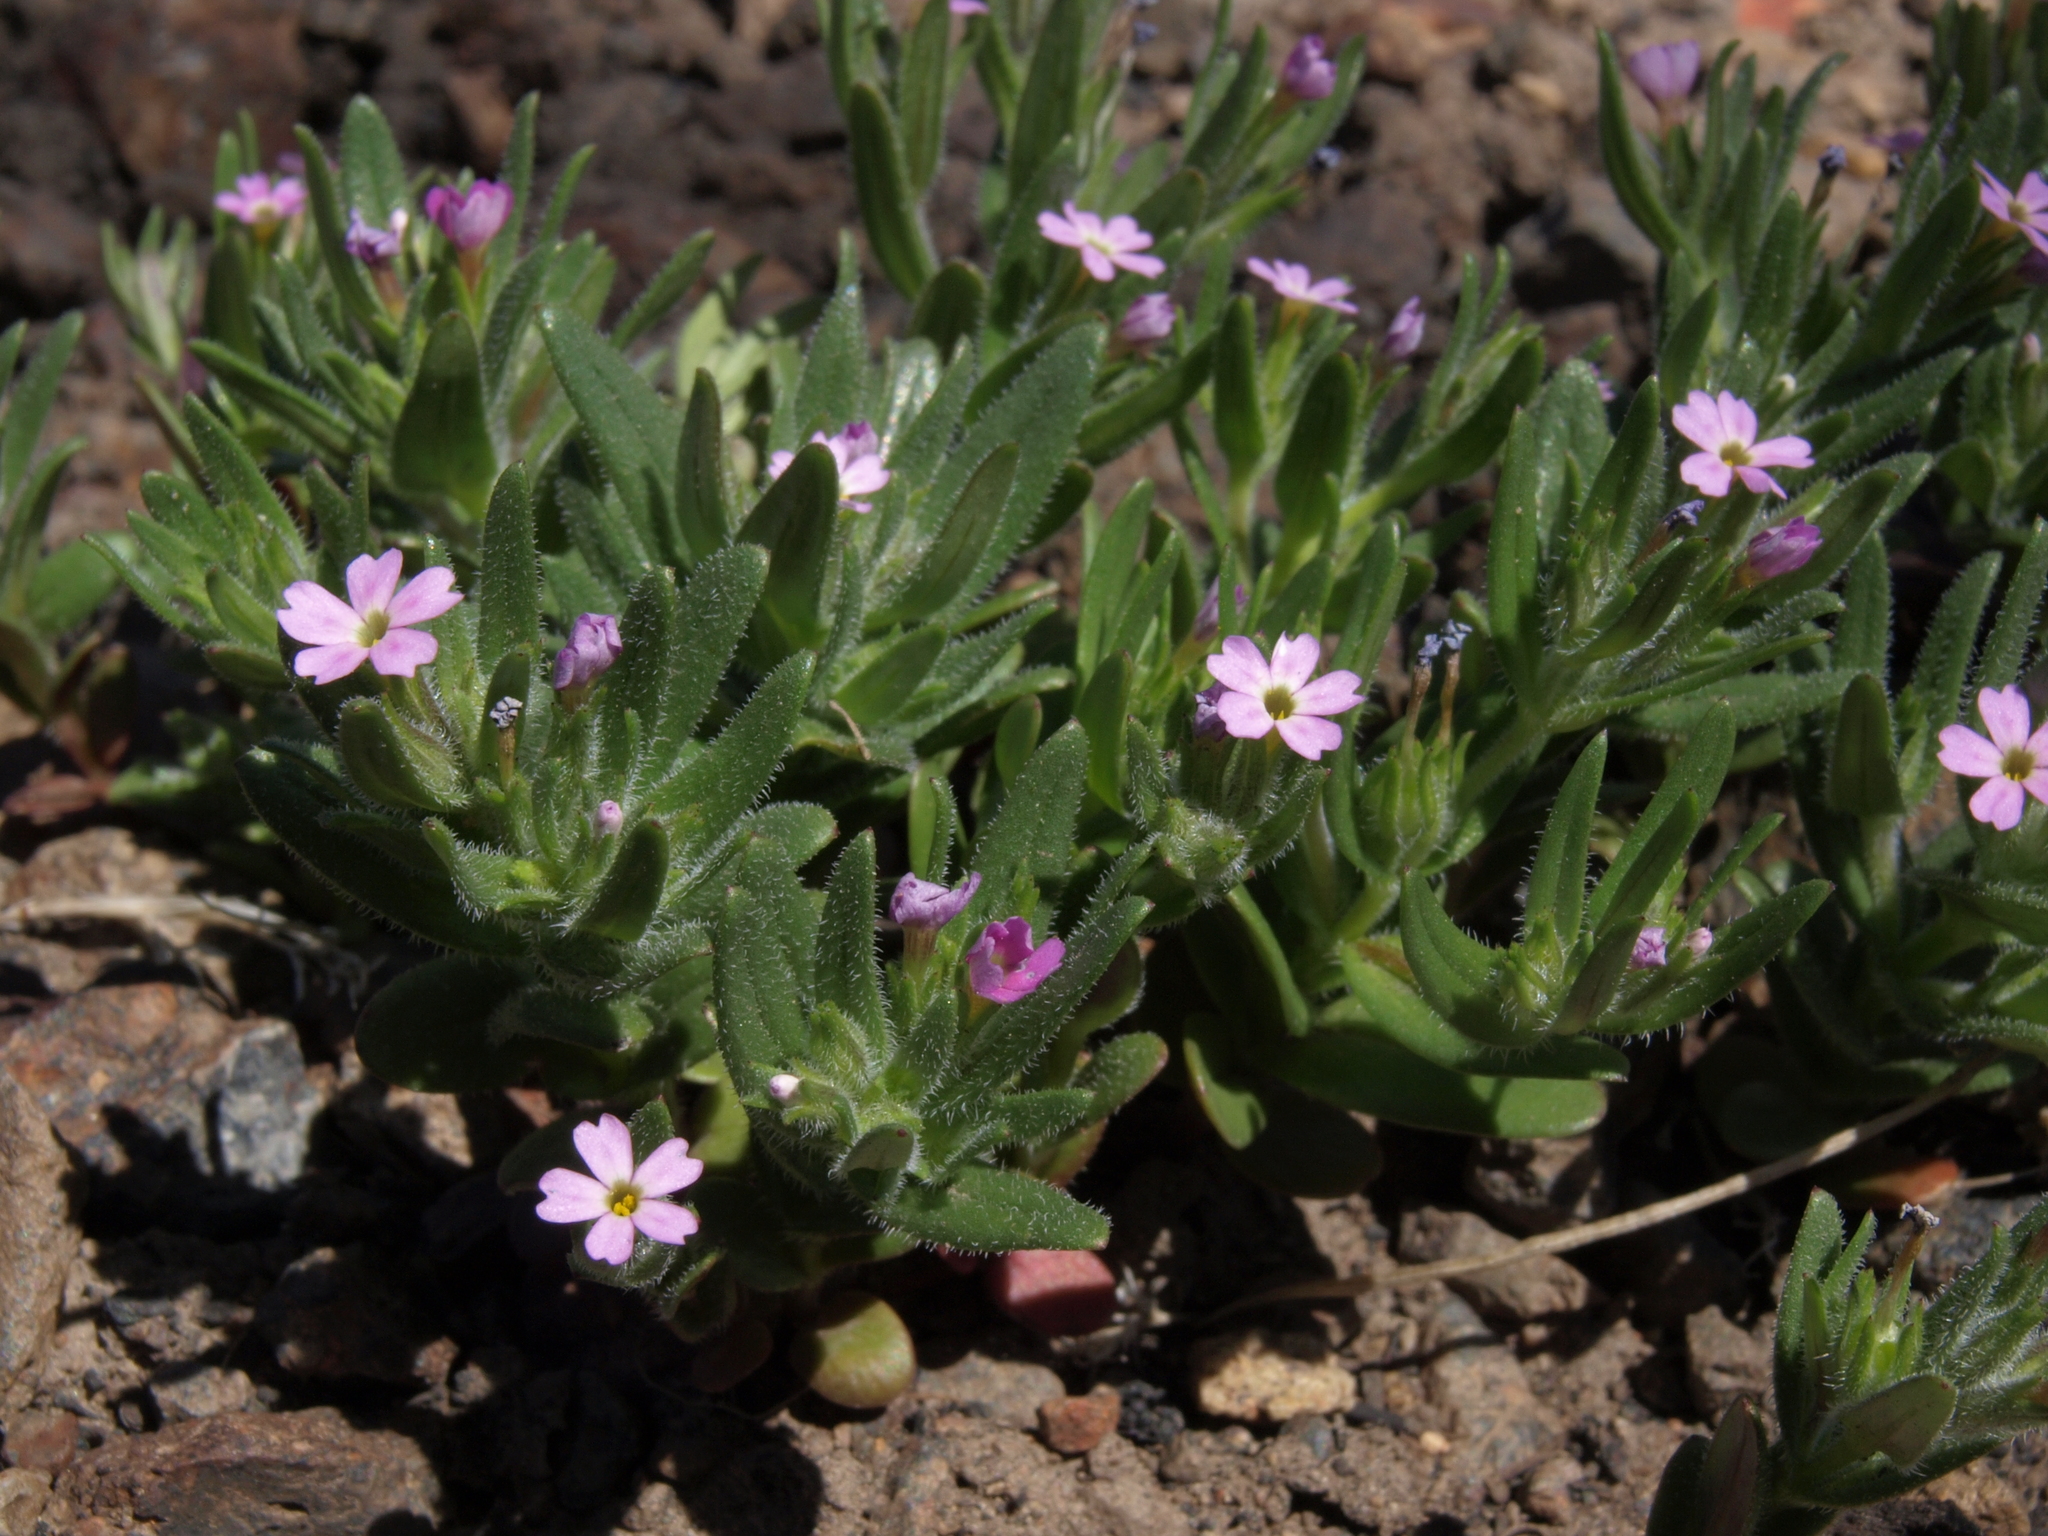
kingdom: Plantae
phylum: Tracheophyta
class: Magnoliopsida
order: Ericales
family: Polemoniaceae
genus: Phlox
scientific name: Phlox gracilis
